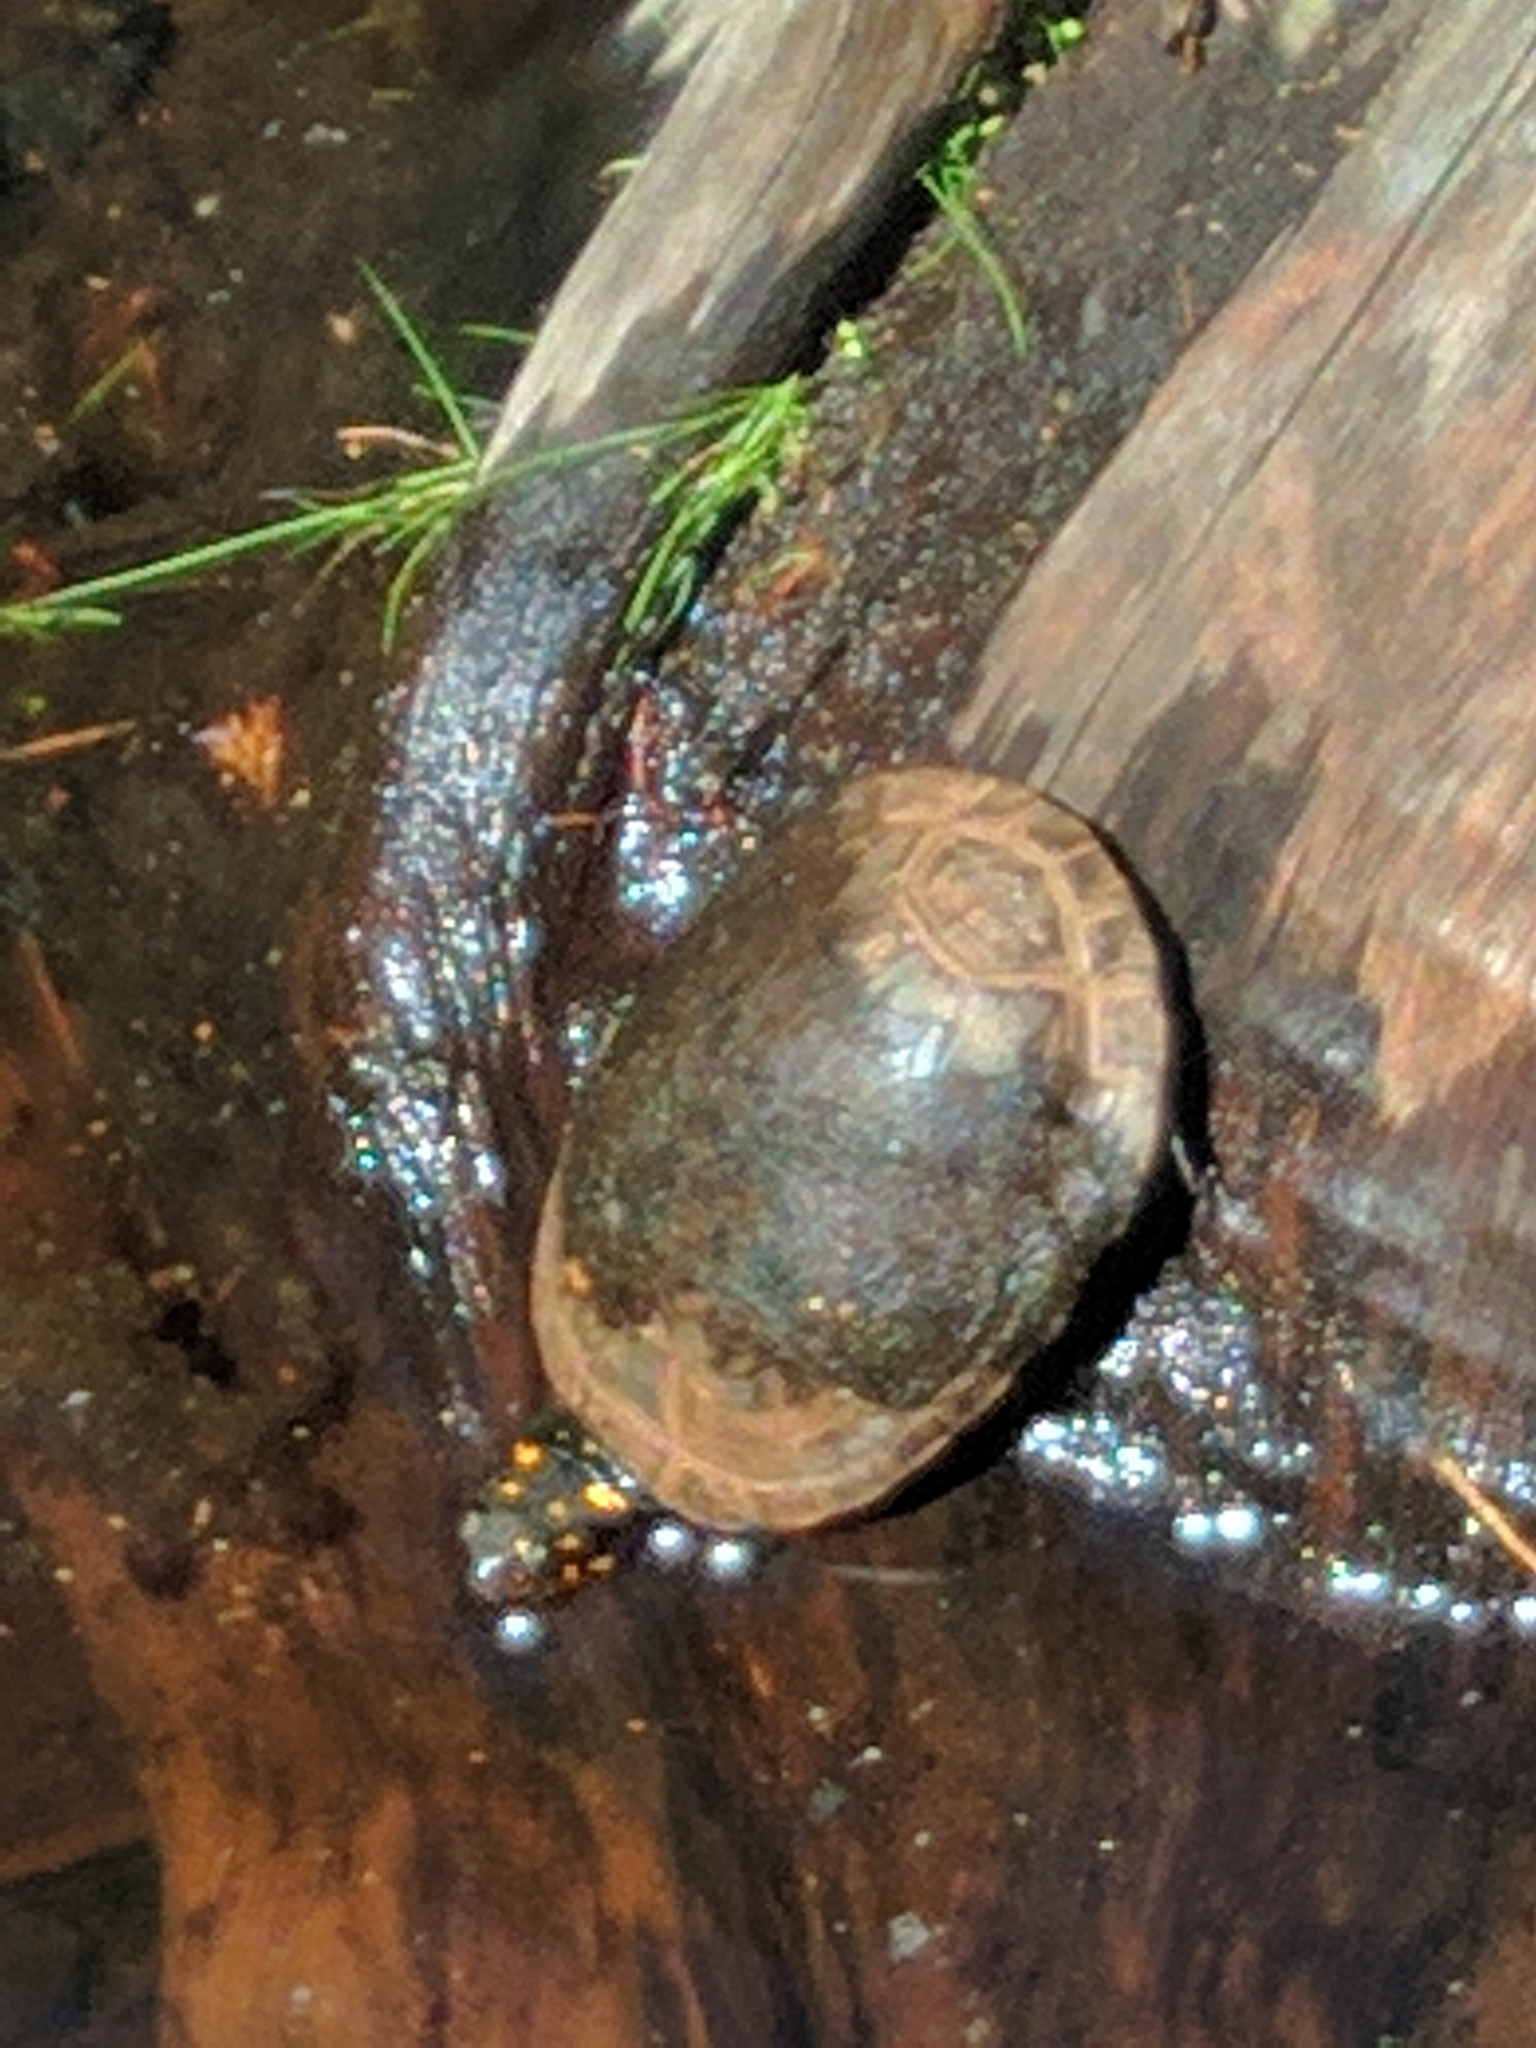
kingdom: Animalia
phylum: Chordata
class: Testudines
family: Emydidae
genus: Clemmys
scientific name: Clemmys guttata
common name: Spotted turtle
